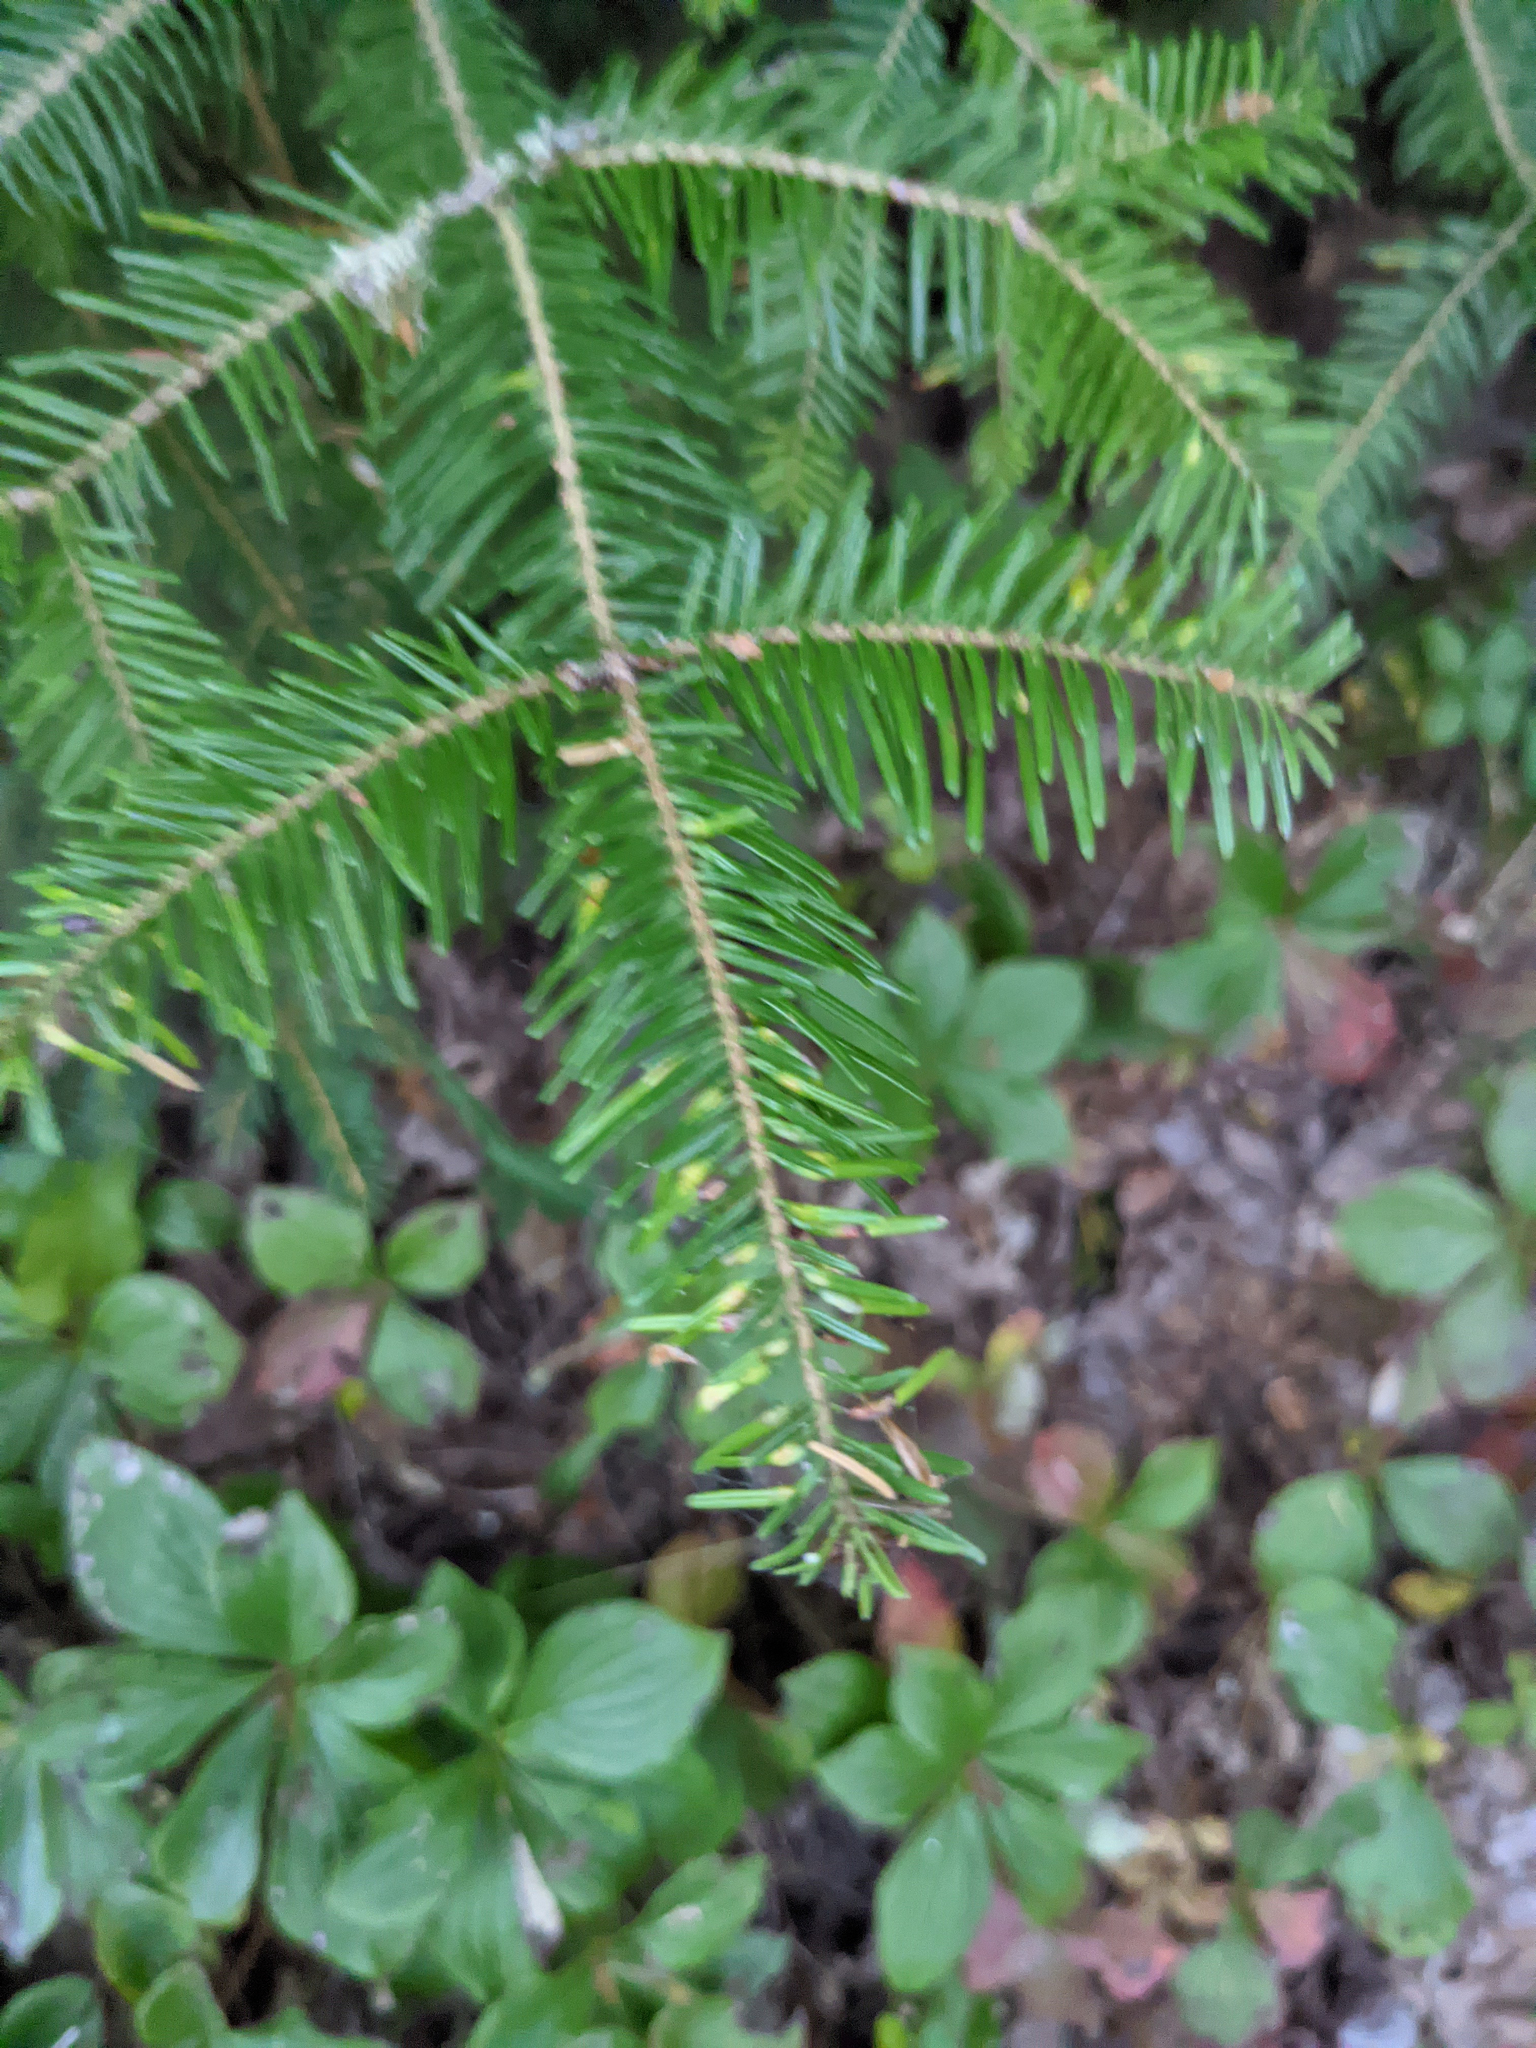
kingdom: Plantae
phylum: Tracheophyta
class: Pinopsida
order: Pinales
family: Pinaceae
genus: Abies
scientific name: Abies balsamea
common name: Balsam fir
